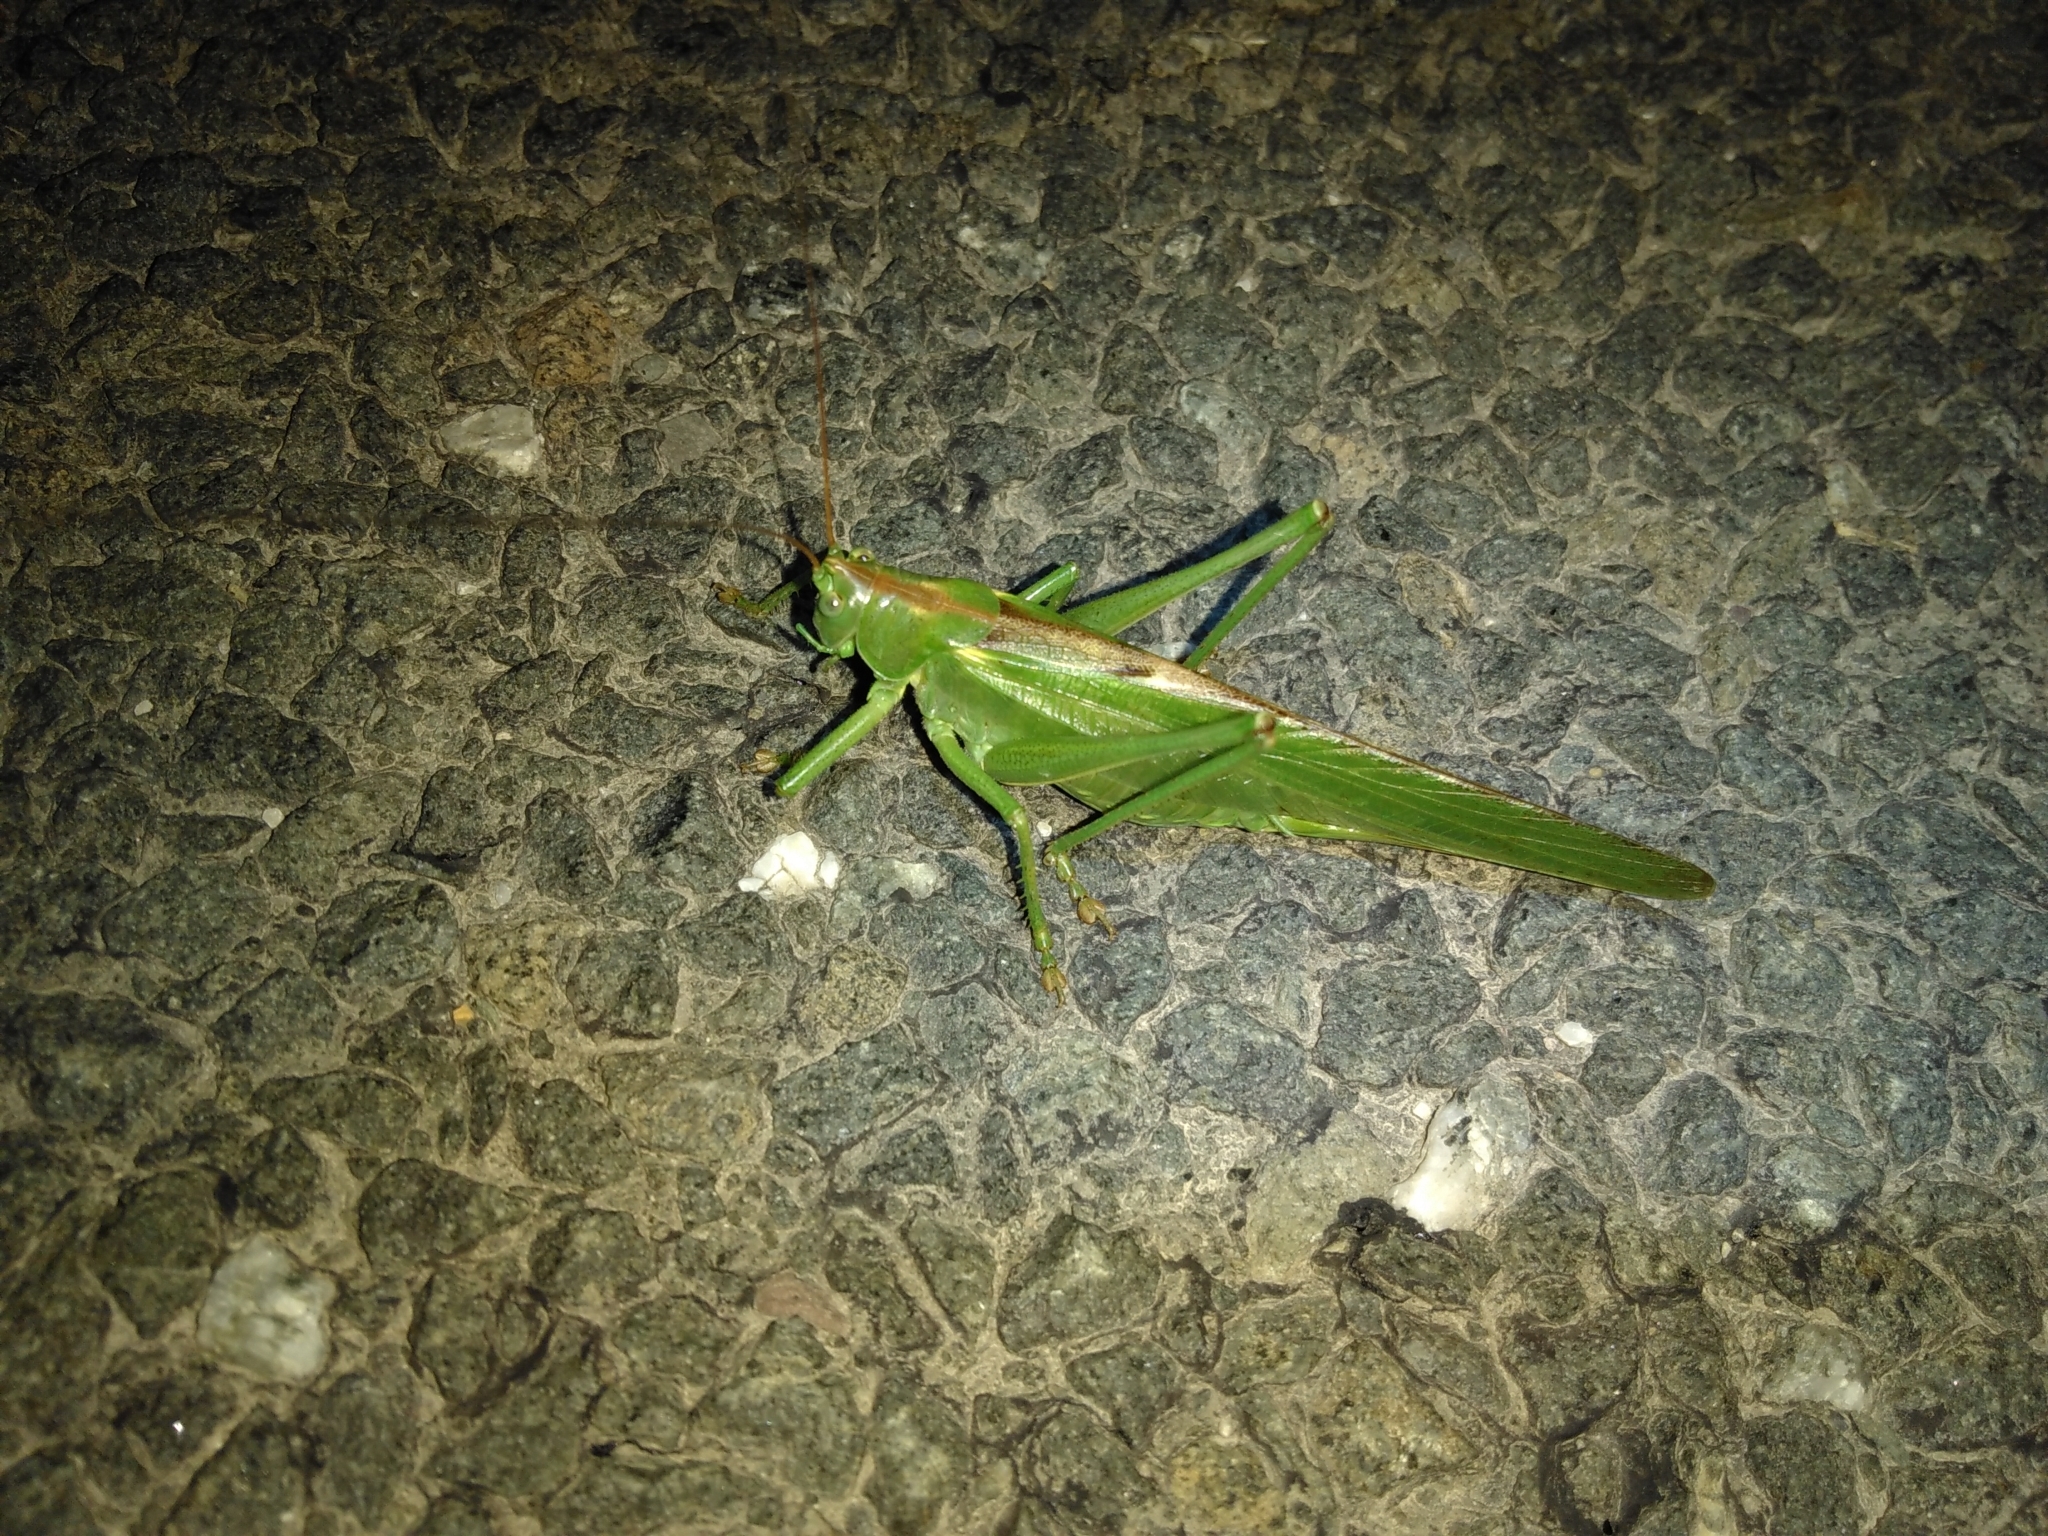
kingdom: Animalia
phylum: Arthropoda
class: Insecta
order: Orthoptera
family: Tettigoniidae
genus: Tettigonia
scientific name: Tettigonia viridissima
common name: Great green bush-cricket
